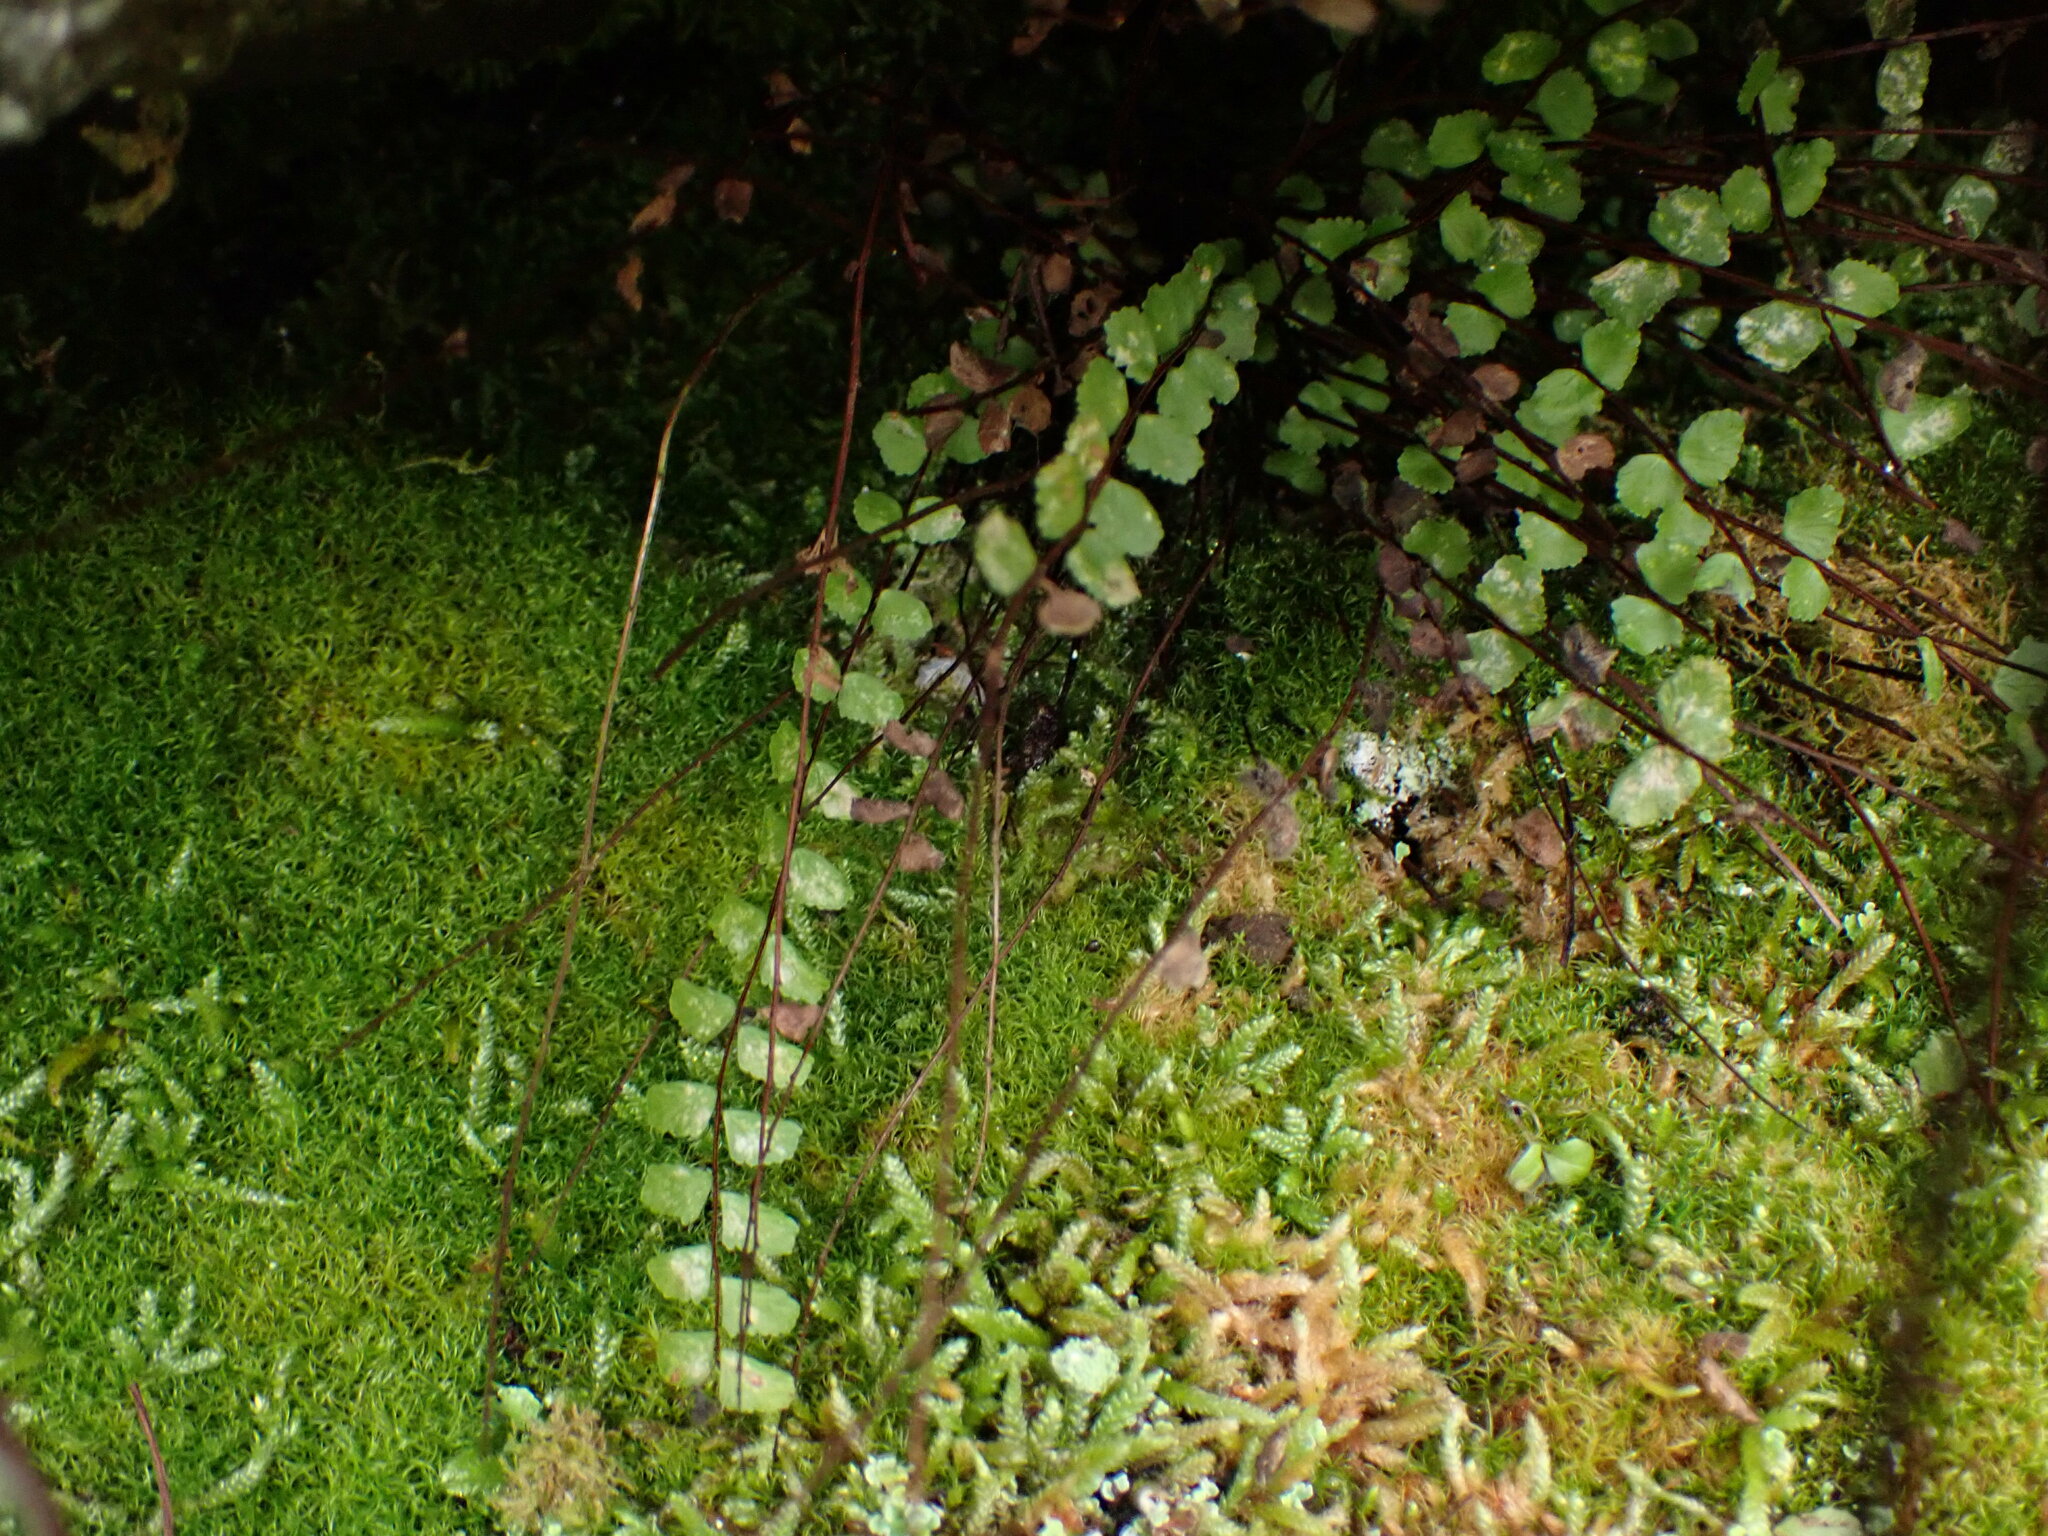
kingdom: Plantae
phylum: Tracheophyta
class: Polypodiopsida
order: Polypodiales
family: Aspleniaceae
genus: Asplenium
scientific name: Asplenium trichomanes
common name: Maidenhair spleenwort
